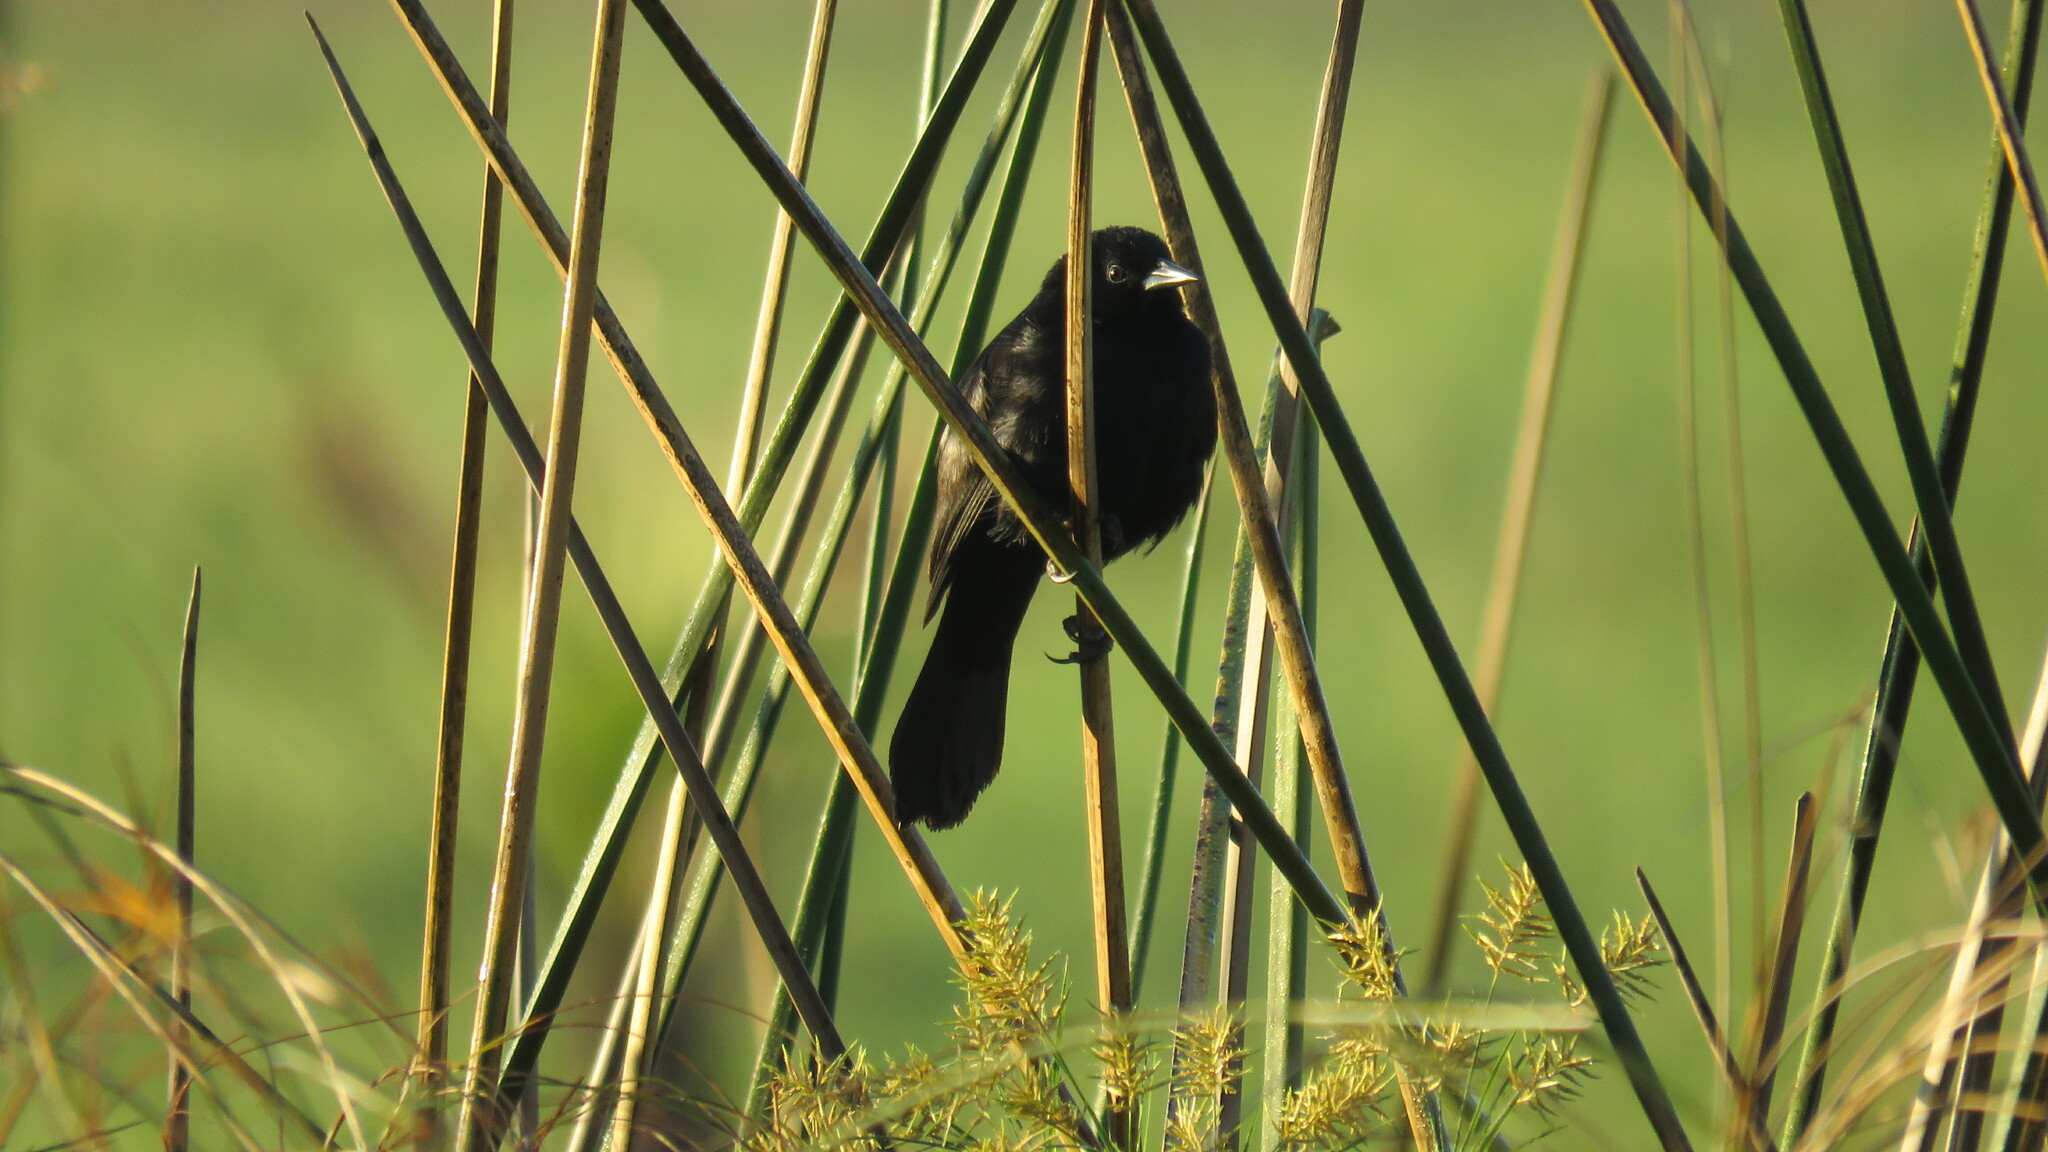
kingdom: Animalia
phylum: Chordata
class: Aves
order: Passeriformes
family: Icteridae
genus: Agelasticus
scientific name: Agelasticus cyanopus
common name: Unicolored blackbird
